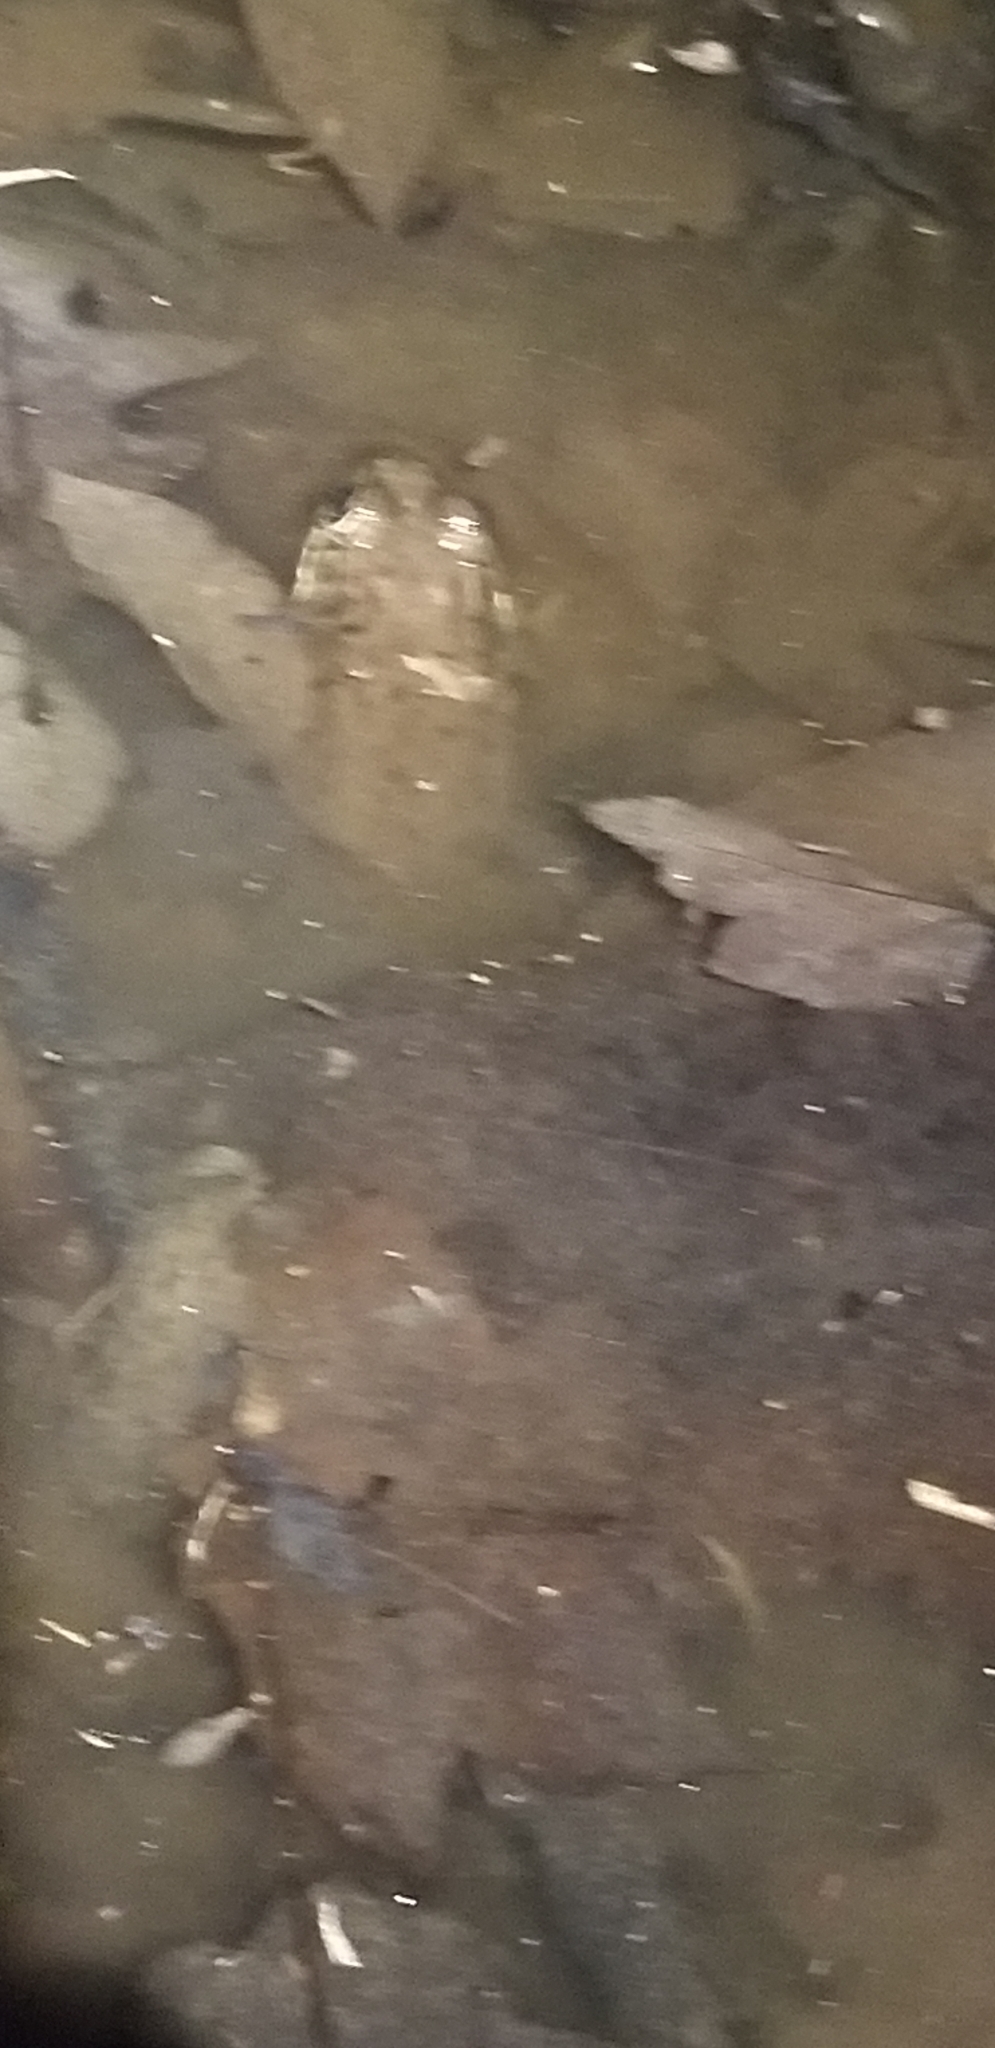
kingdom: Animalia
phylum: Chordata
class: Amphibia
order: Anura
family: Ranidae
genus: Lithobates
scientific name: Lithobates clamitans
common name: Green frog
